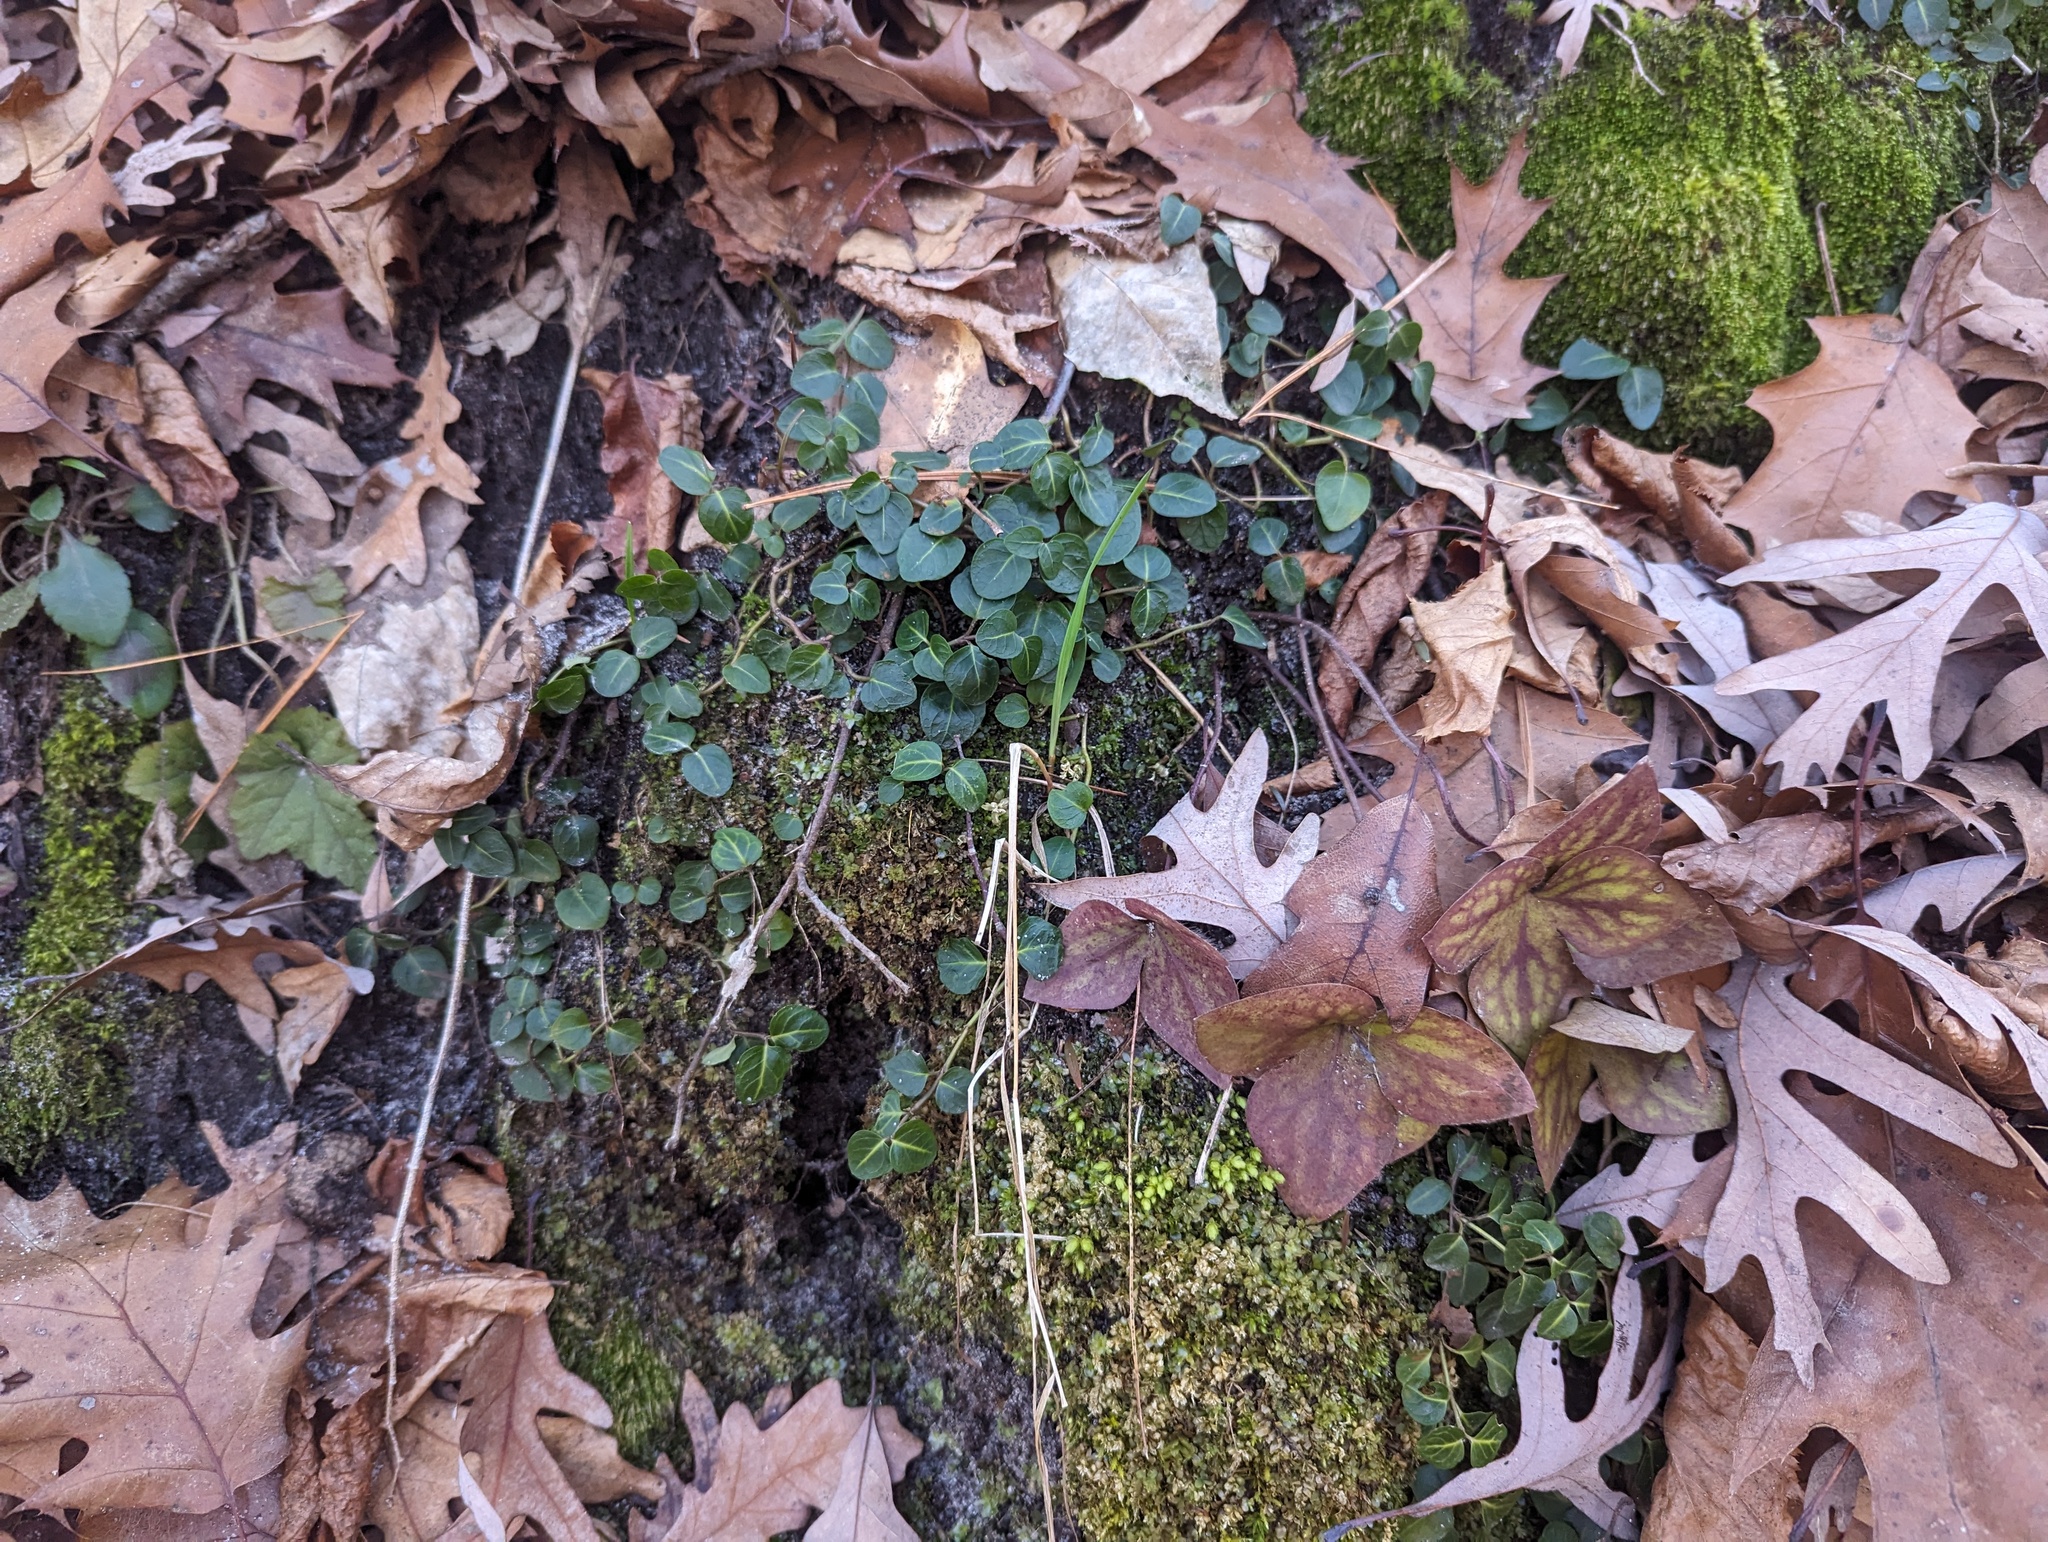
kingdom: Plantae
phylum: Tracheophyta
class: Magnoliopsida
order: Gentianales
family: Rubiaceae
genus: Mitchella
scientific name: Mitchella repens
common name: Partridge-berry
